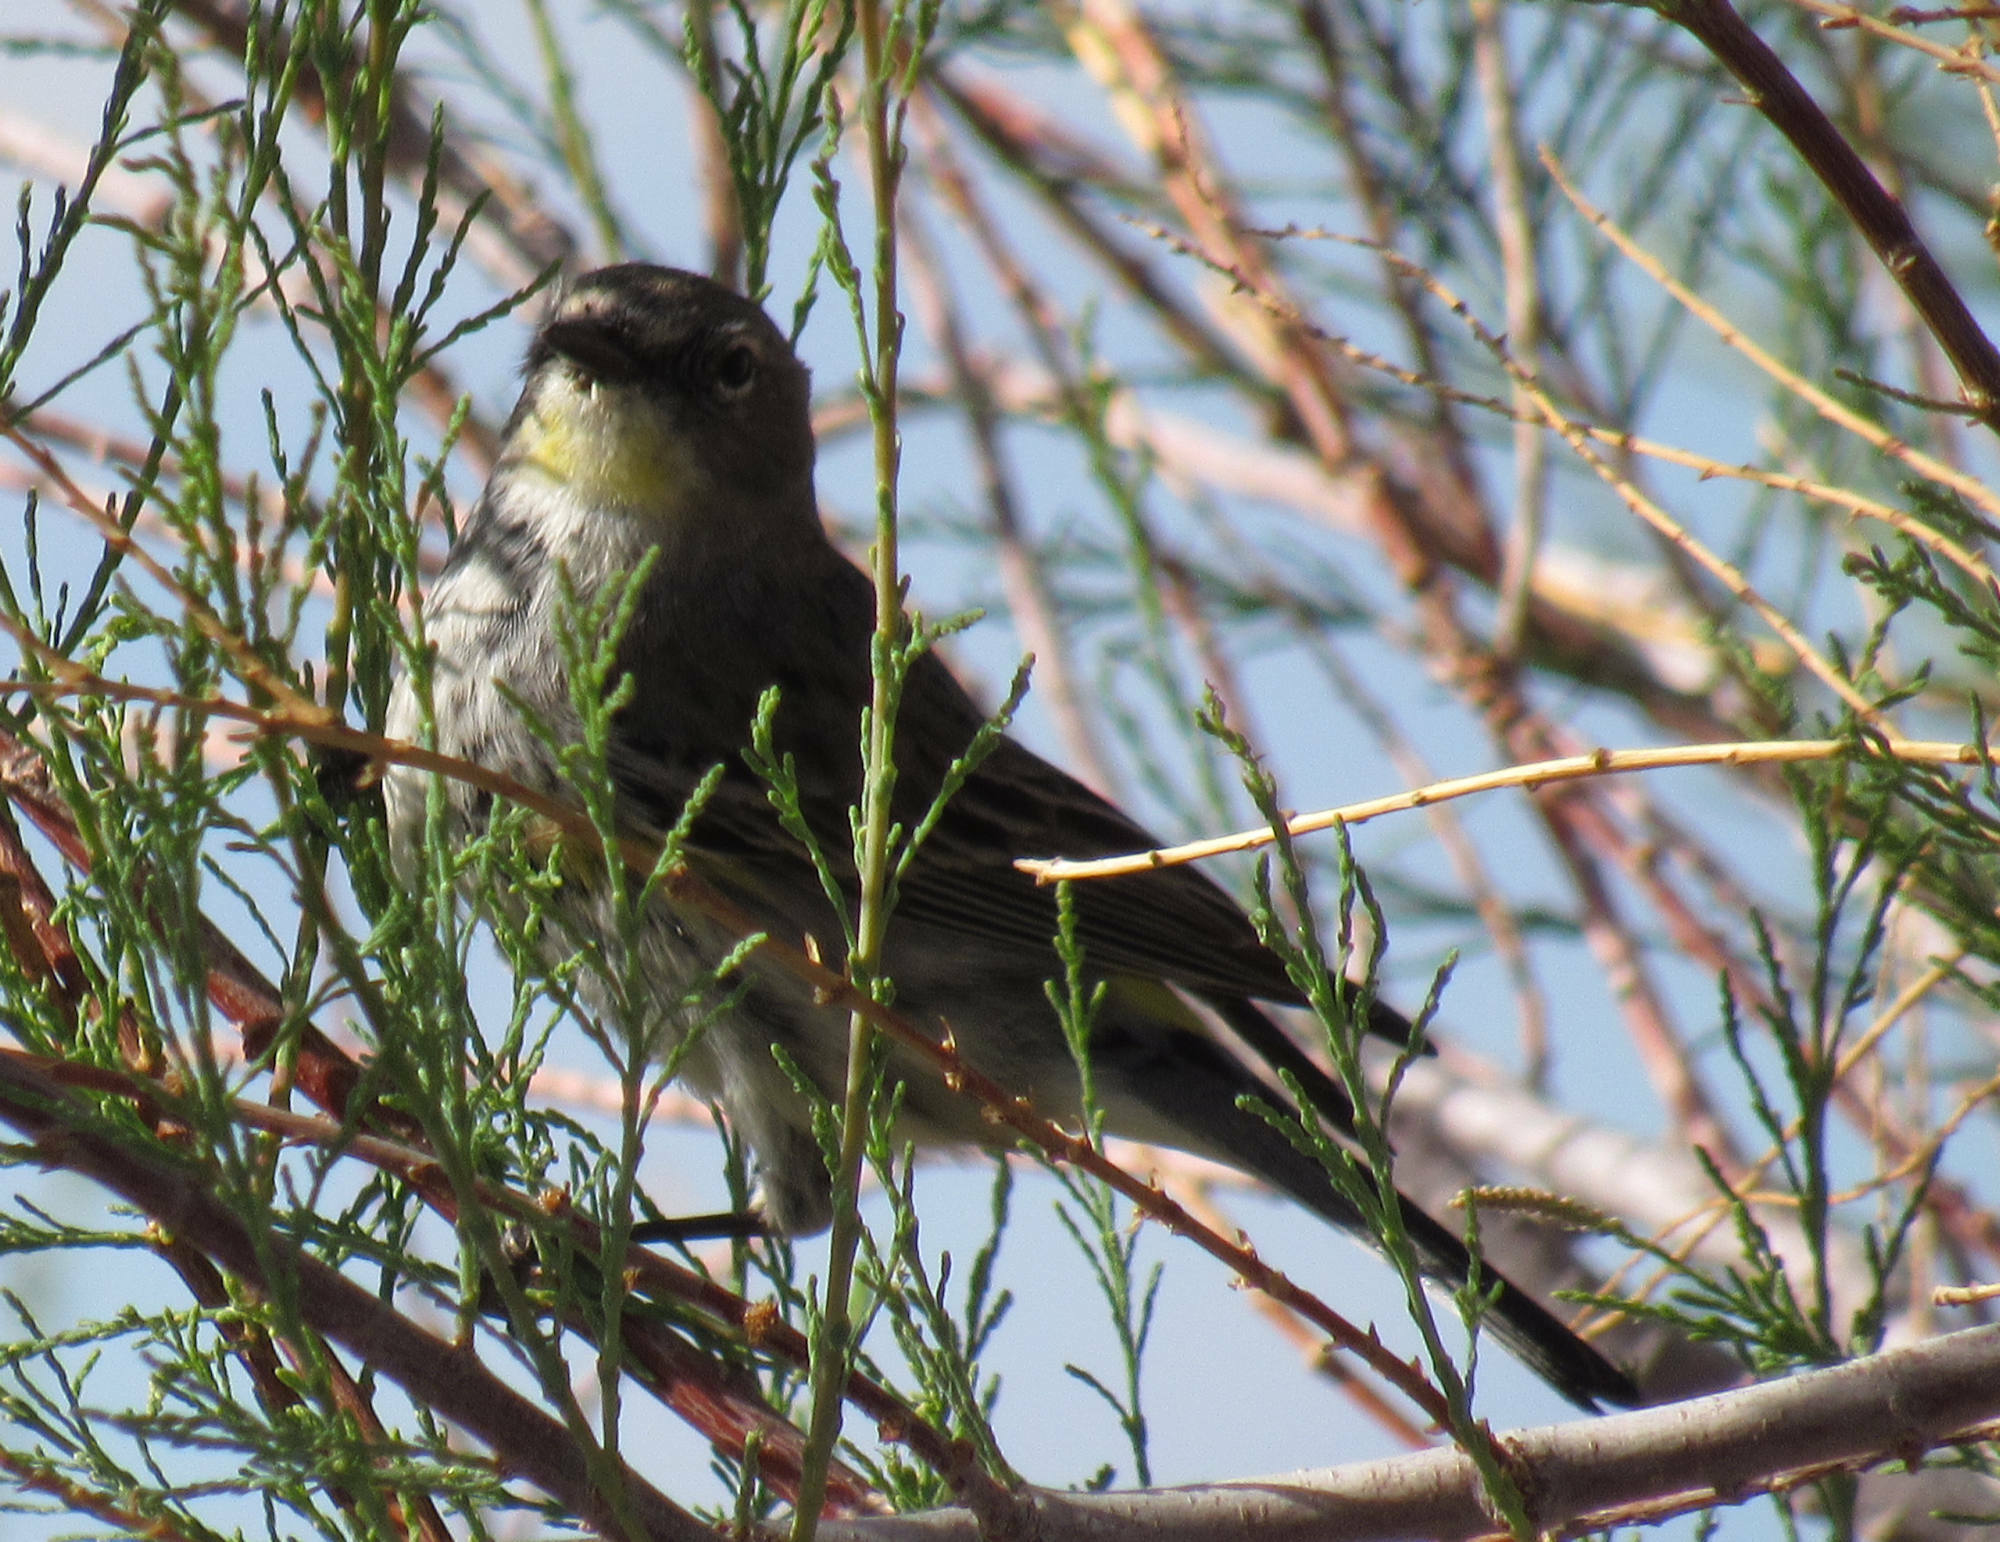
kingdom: Animalia
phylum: Chordata
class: Aves
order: Passeriformes
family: Parulidae
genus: Setophaga
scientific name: Setophaga coronata
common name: Myrtle warbler
